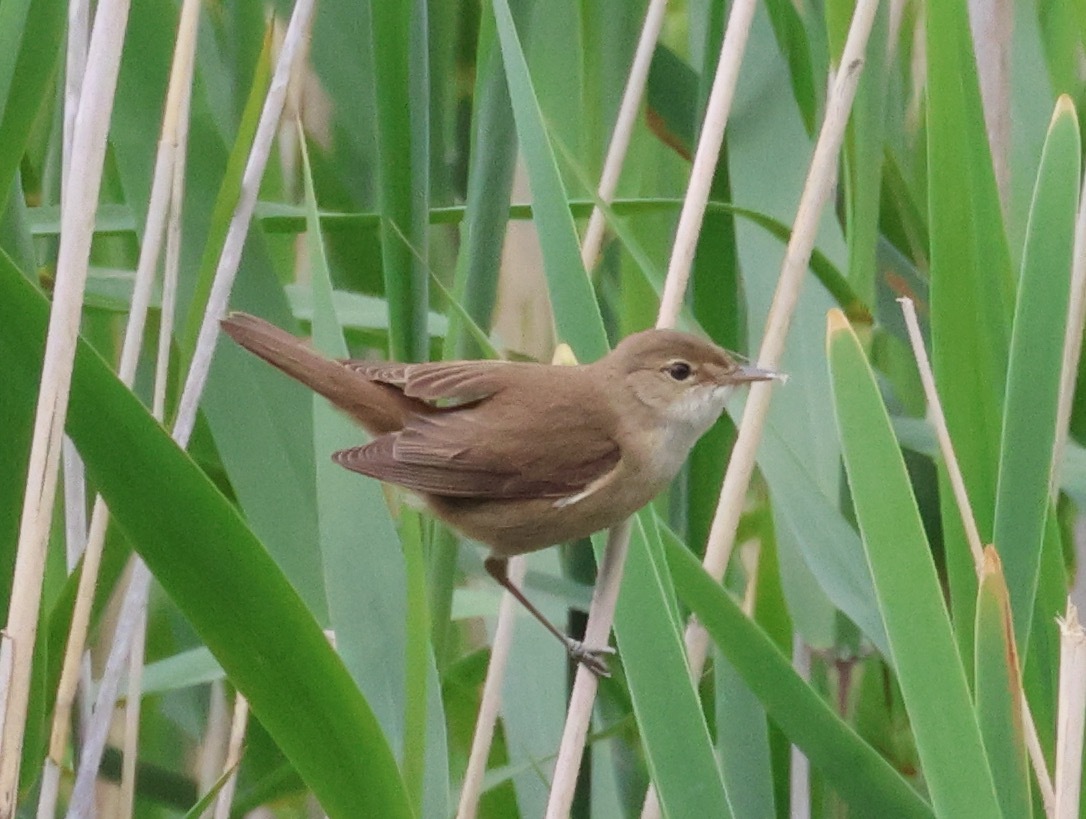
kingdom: Animalia
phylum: Chordata
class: Aves
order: Passeriformes
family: Acrocephalidae
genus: Acrocephalus
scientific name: Acrocephalus scirpaceus
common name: Eurasian reed warbler
